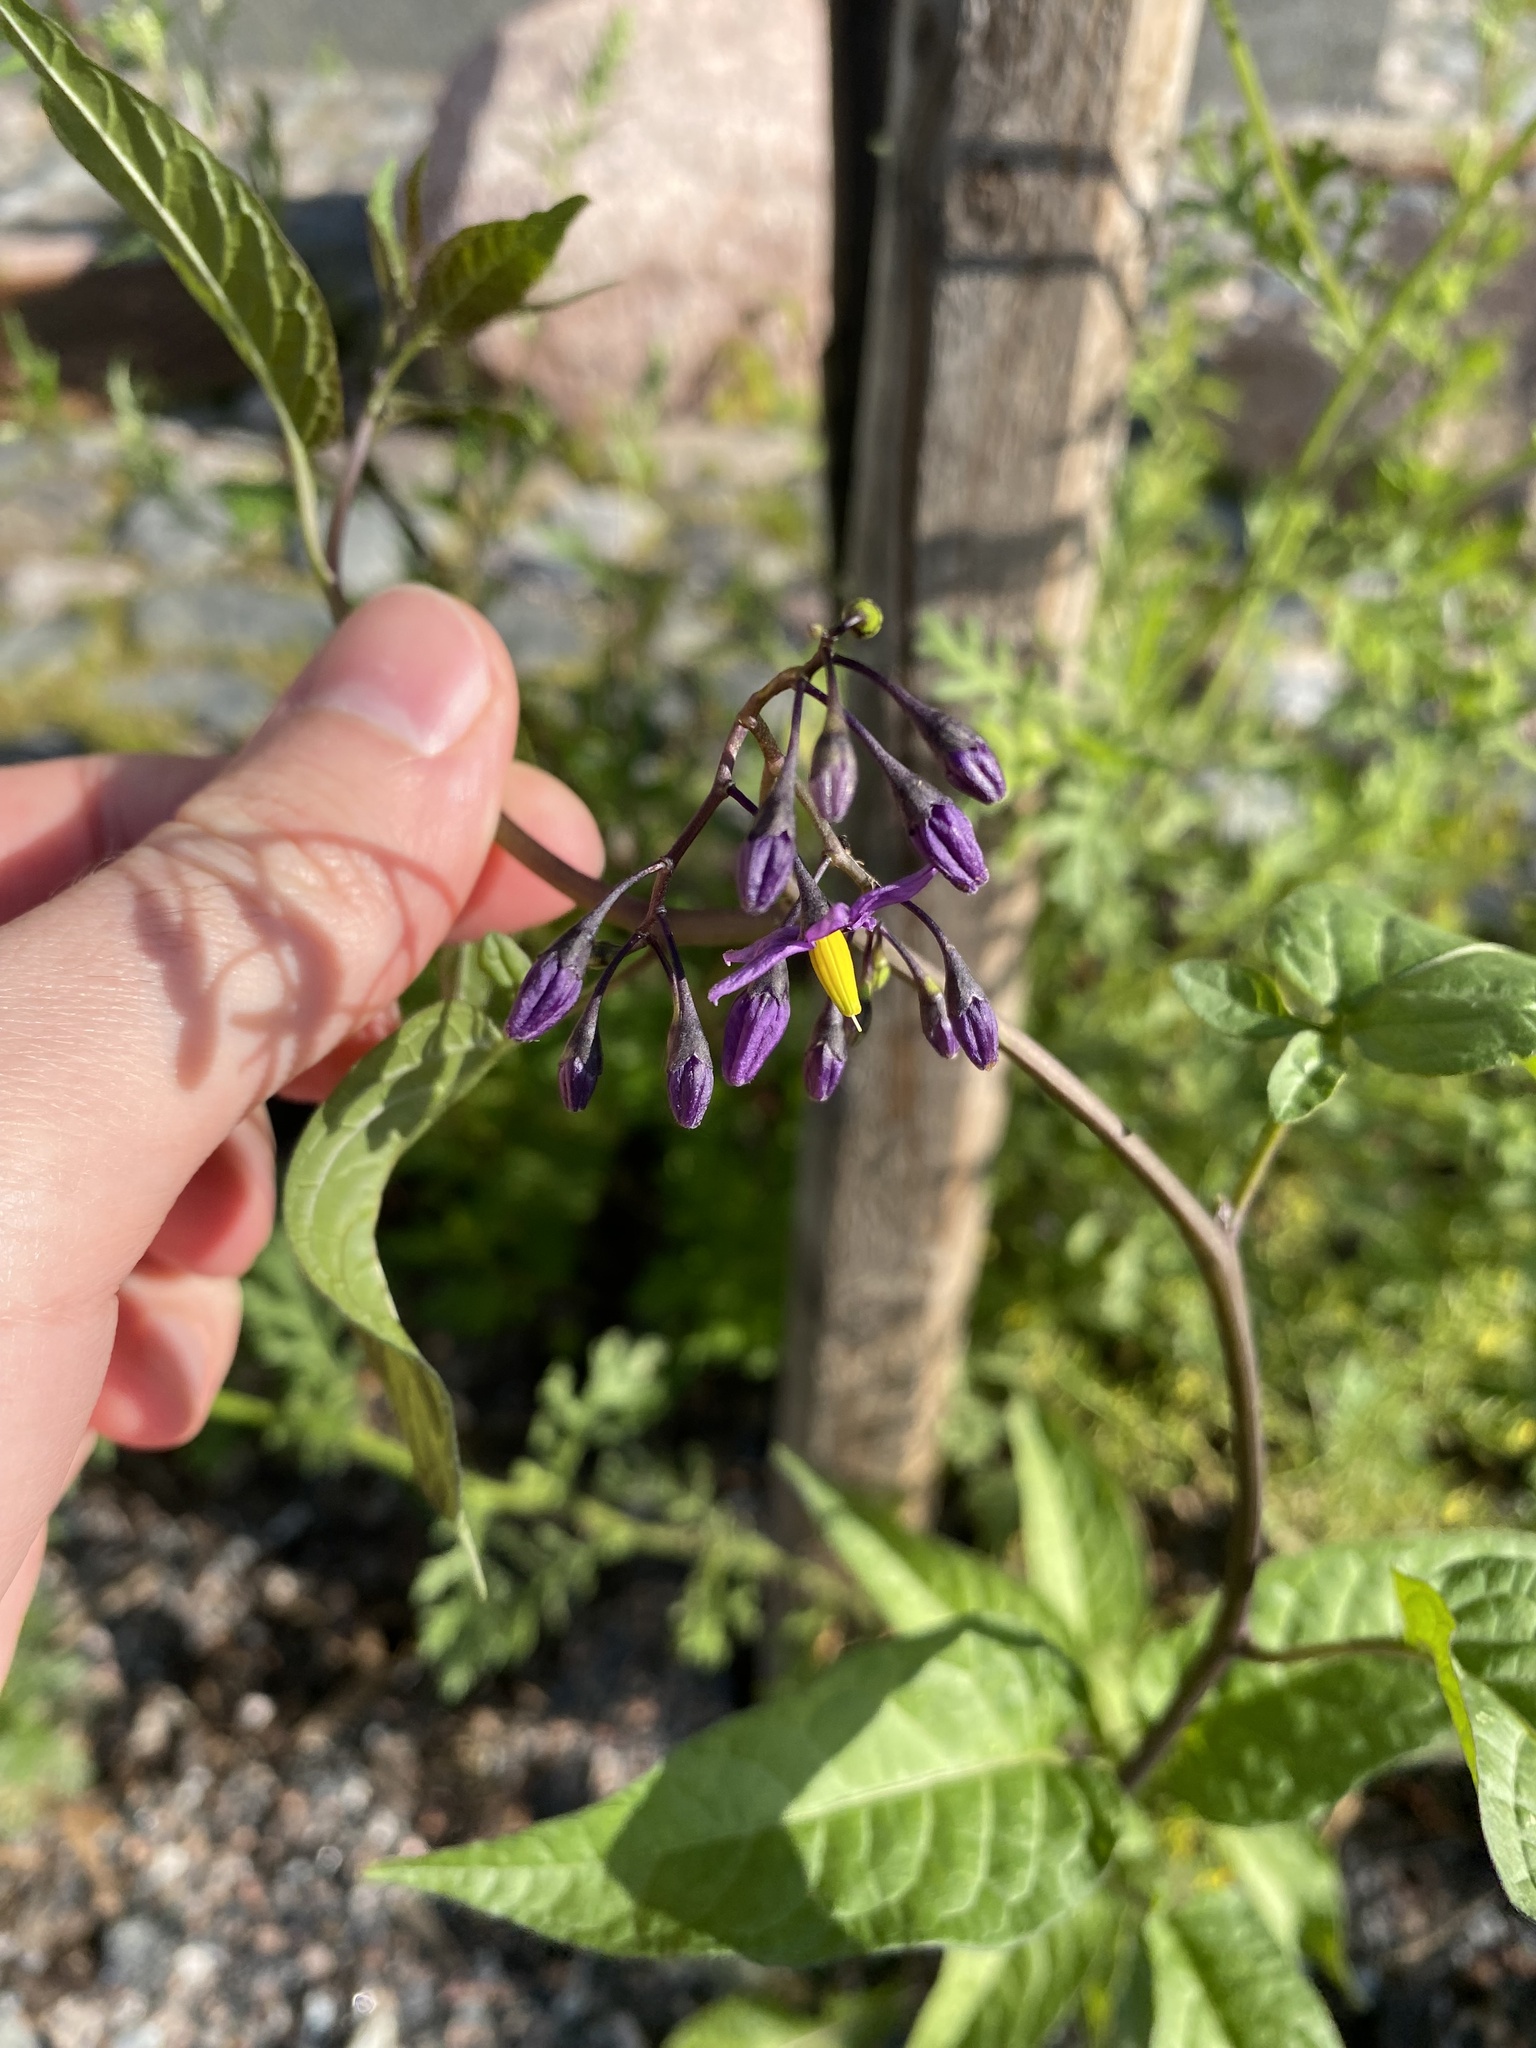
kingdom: Plantae
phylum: Tracheophyta
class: Magnoliopsida
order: Solanales
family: Solanaceae
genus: Solanum
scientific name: Solanum dulcamara
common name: Climbing nightshade
